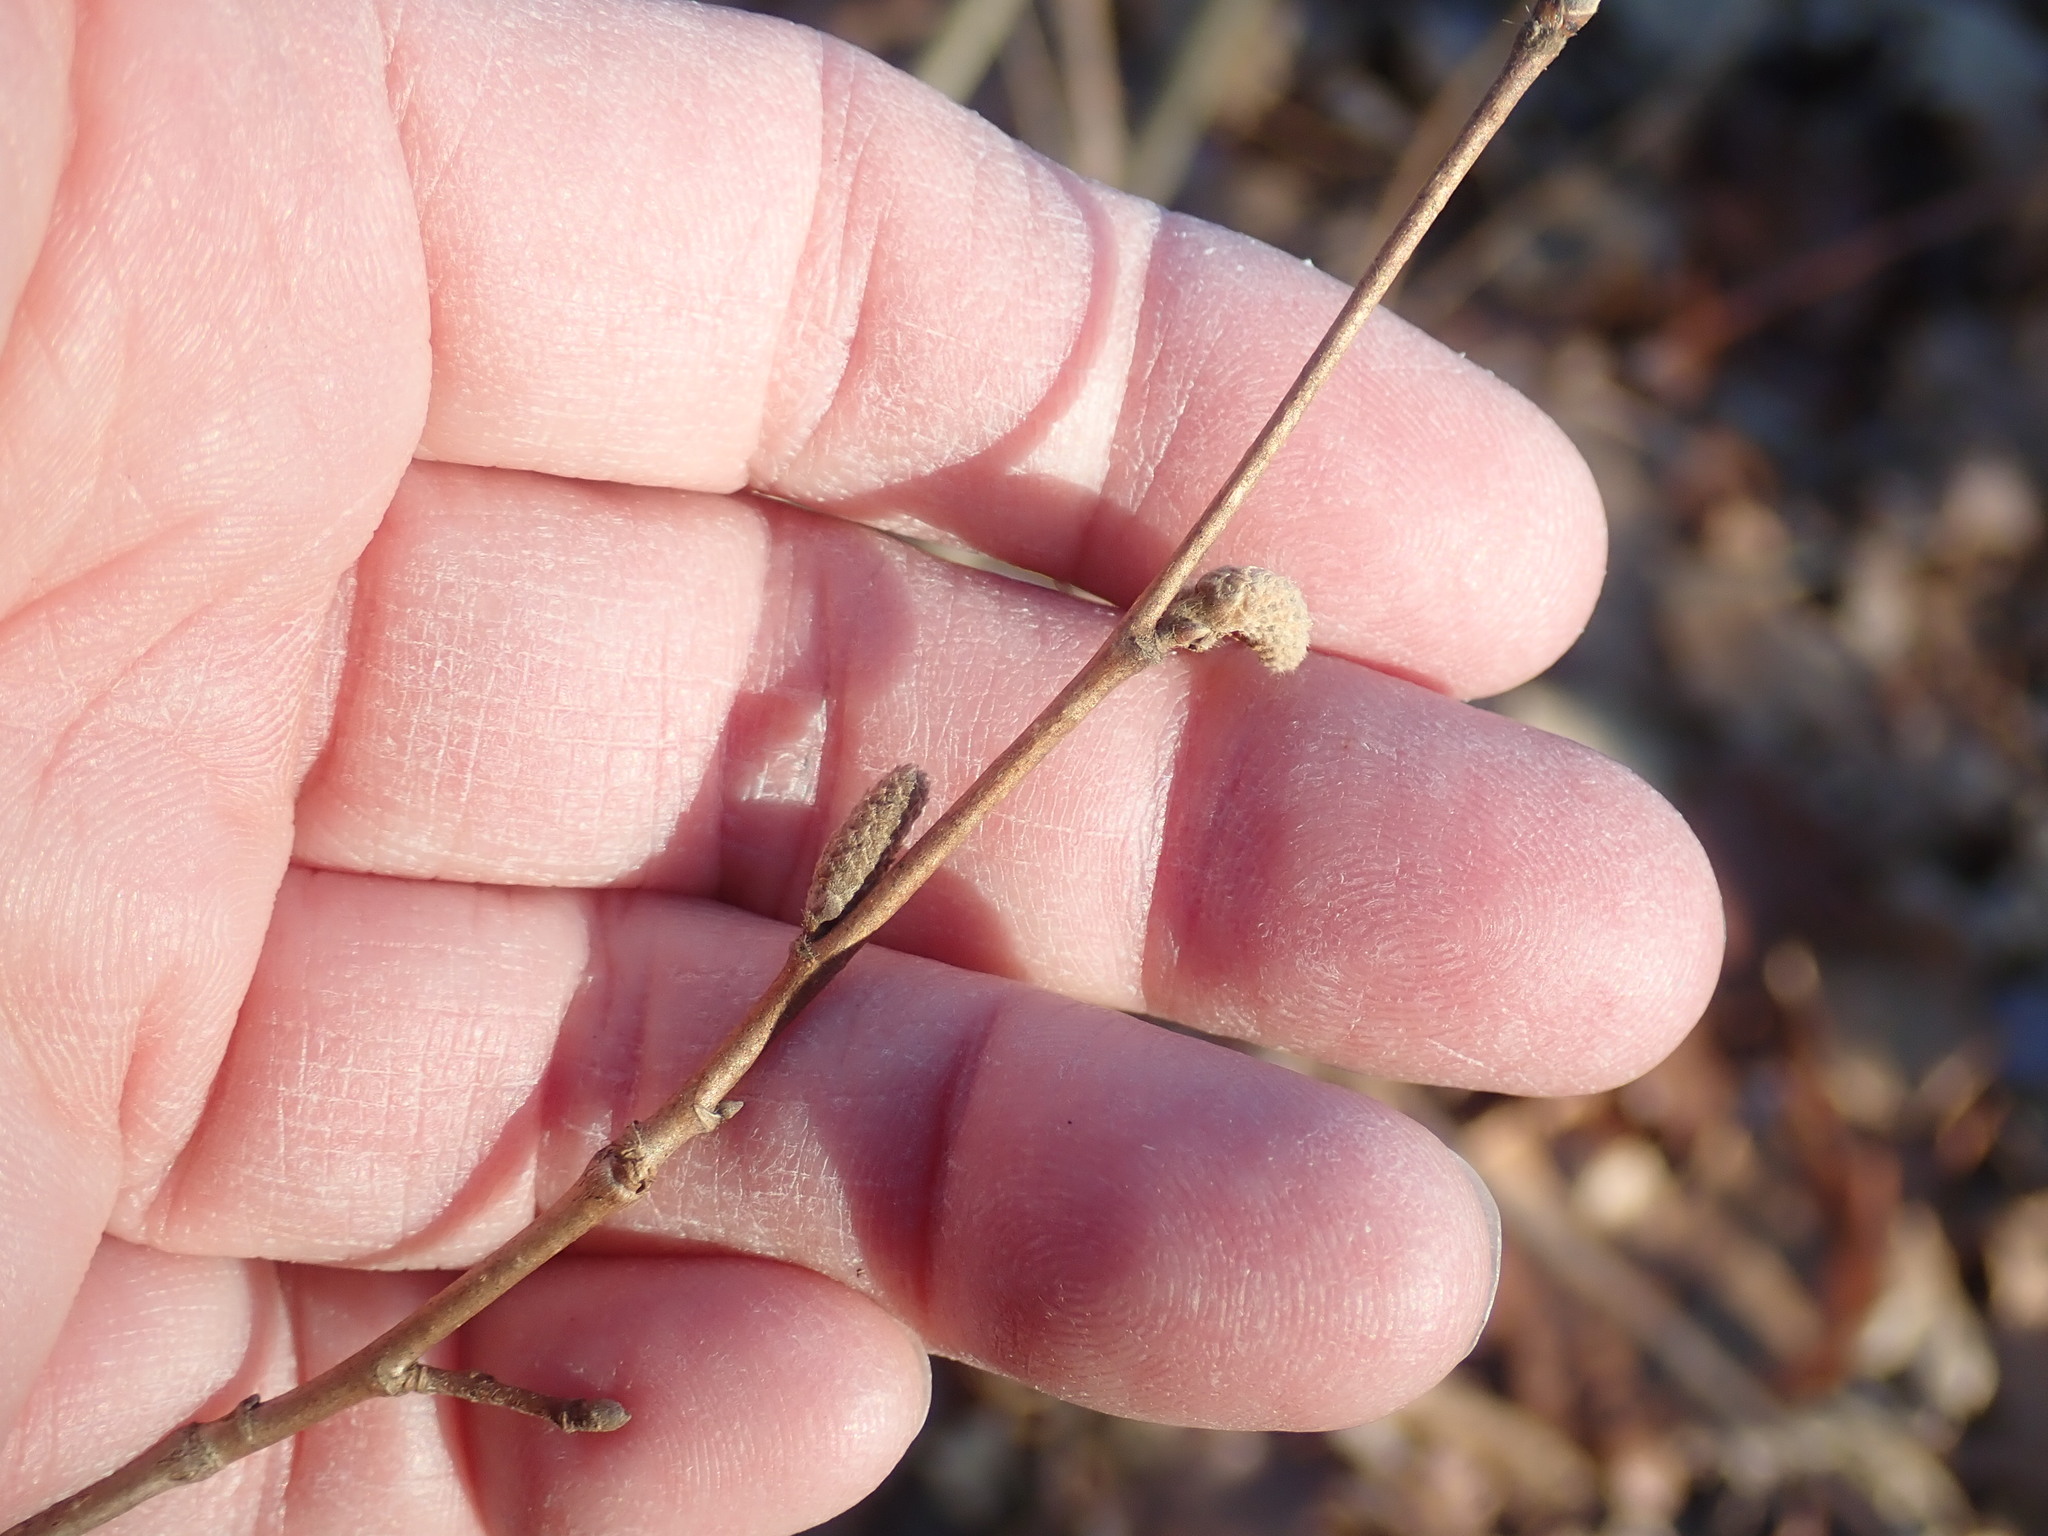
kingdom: Plantae
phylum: Tracheophyta
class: Magnoliopsida
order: Fagales
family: Betulaceae
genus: Corylus
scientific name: Corylus cornuta
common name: Beaked hazel
